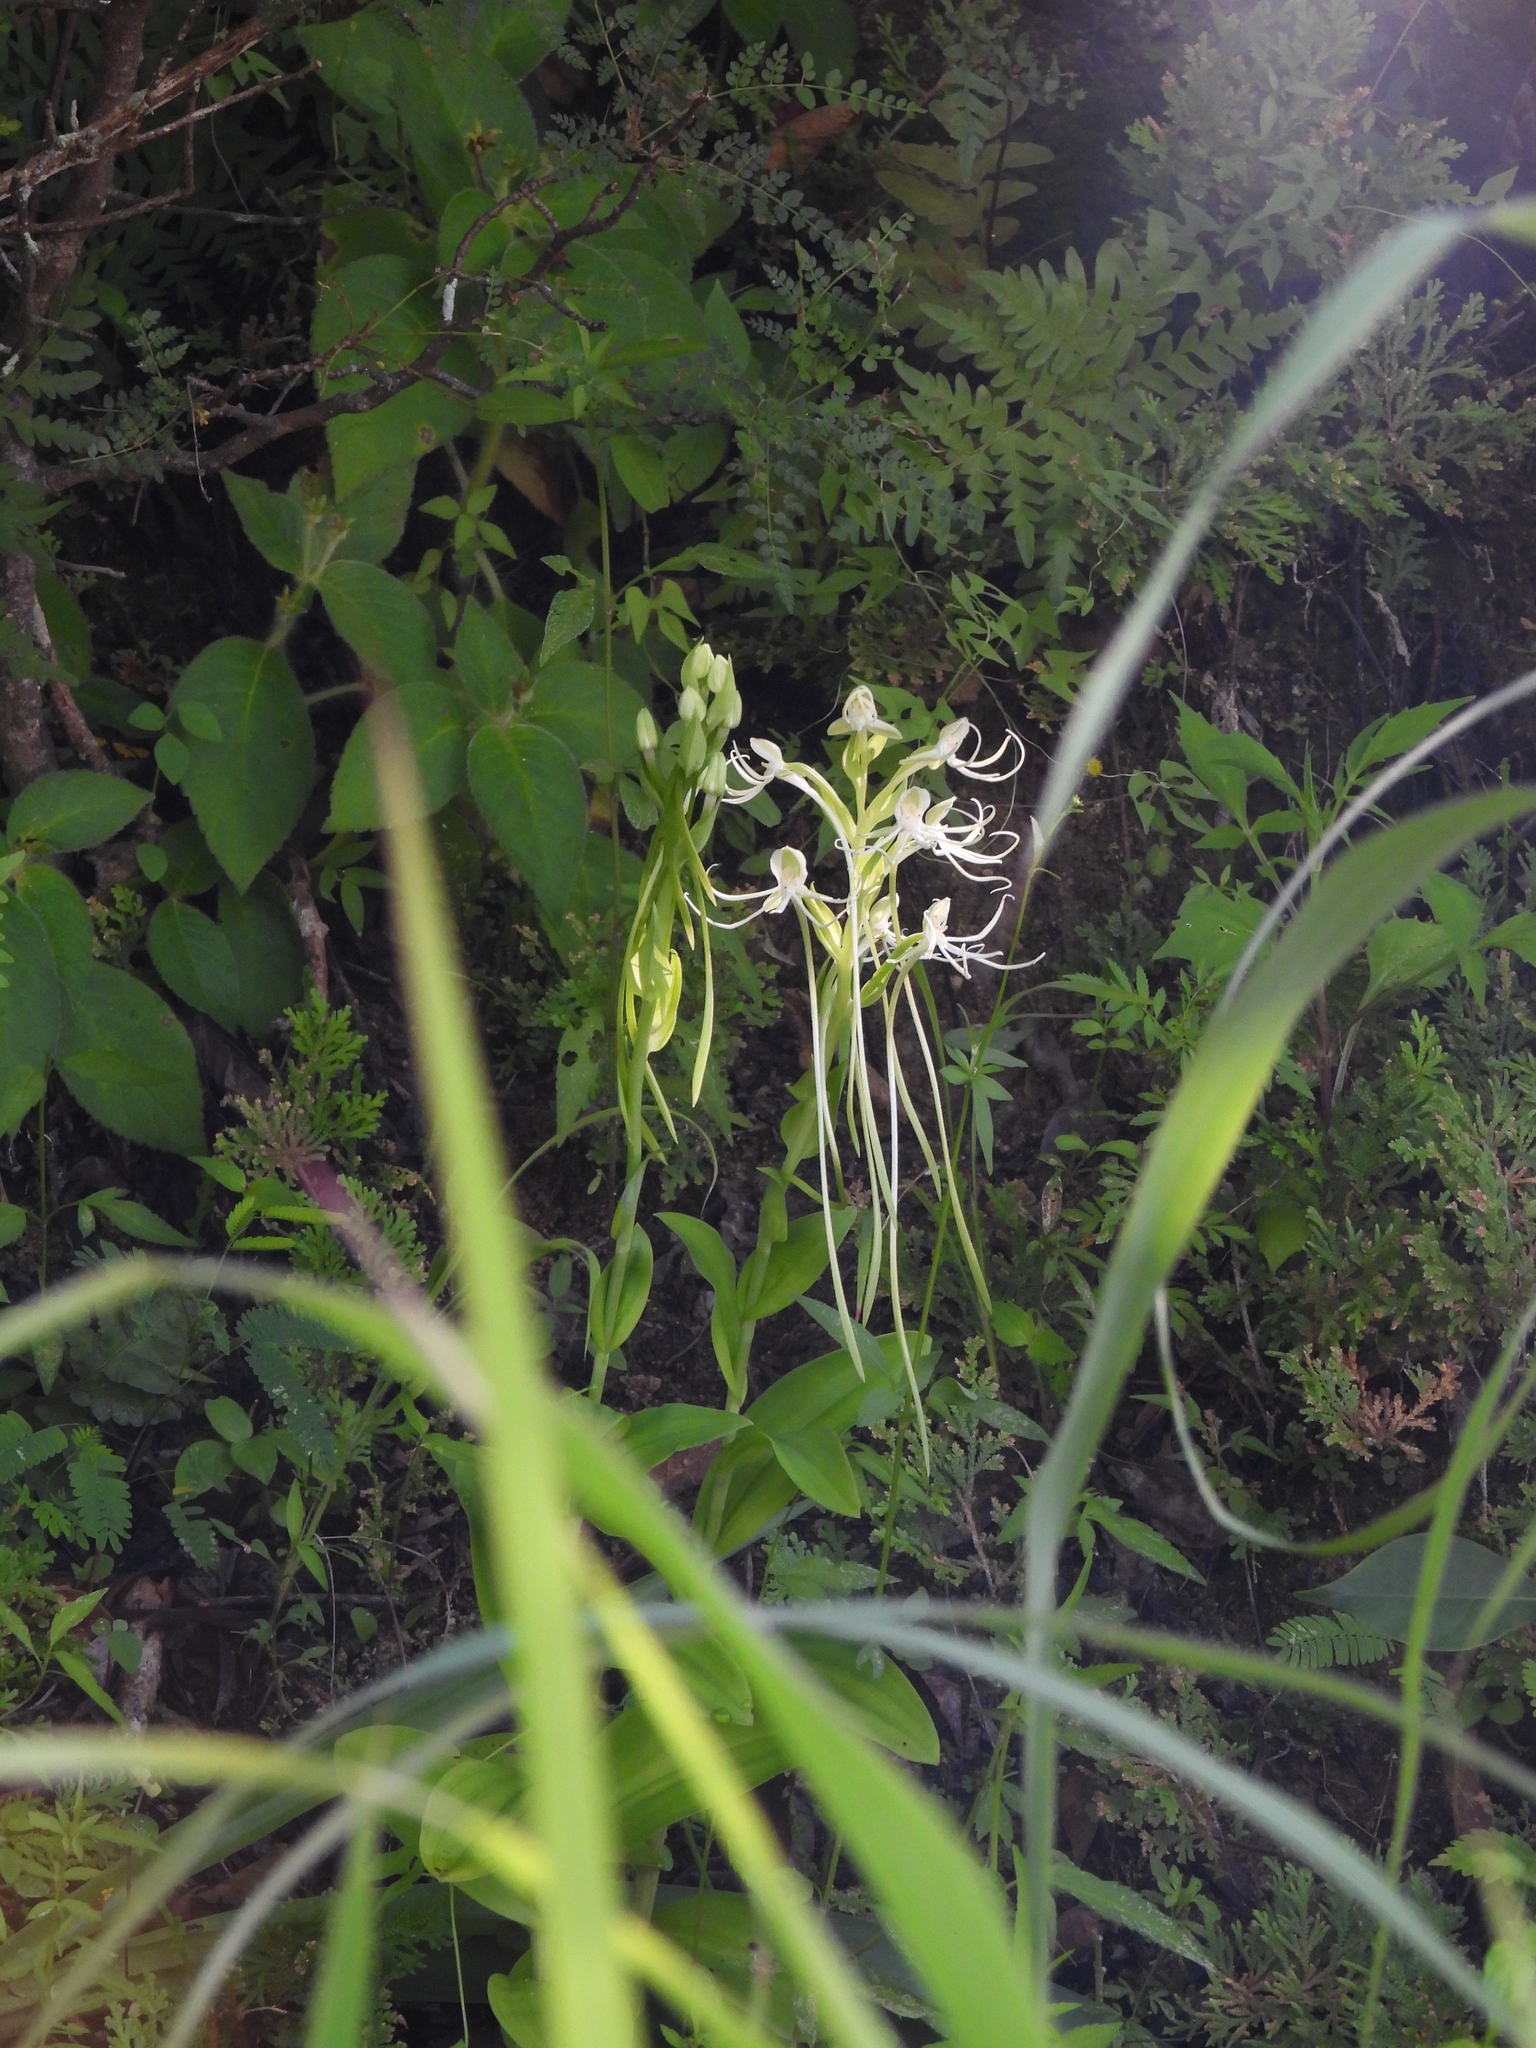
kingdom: Plantae
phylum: Tracheophyta
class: Liliopsida
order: Asparagales
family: Orchidaceae
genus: Habenaria
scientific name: Habenaria macroceratitis
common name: Big-horn bog orchid
